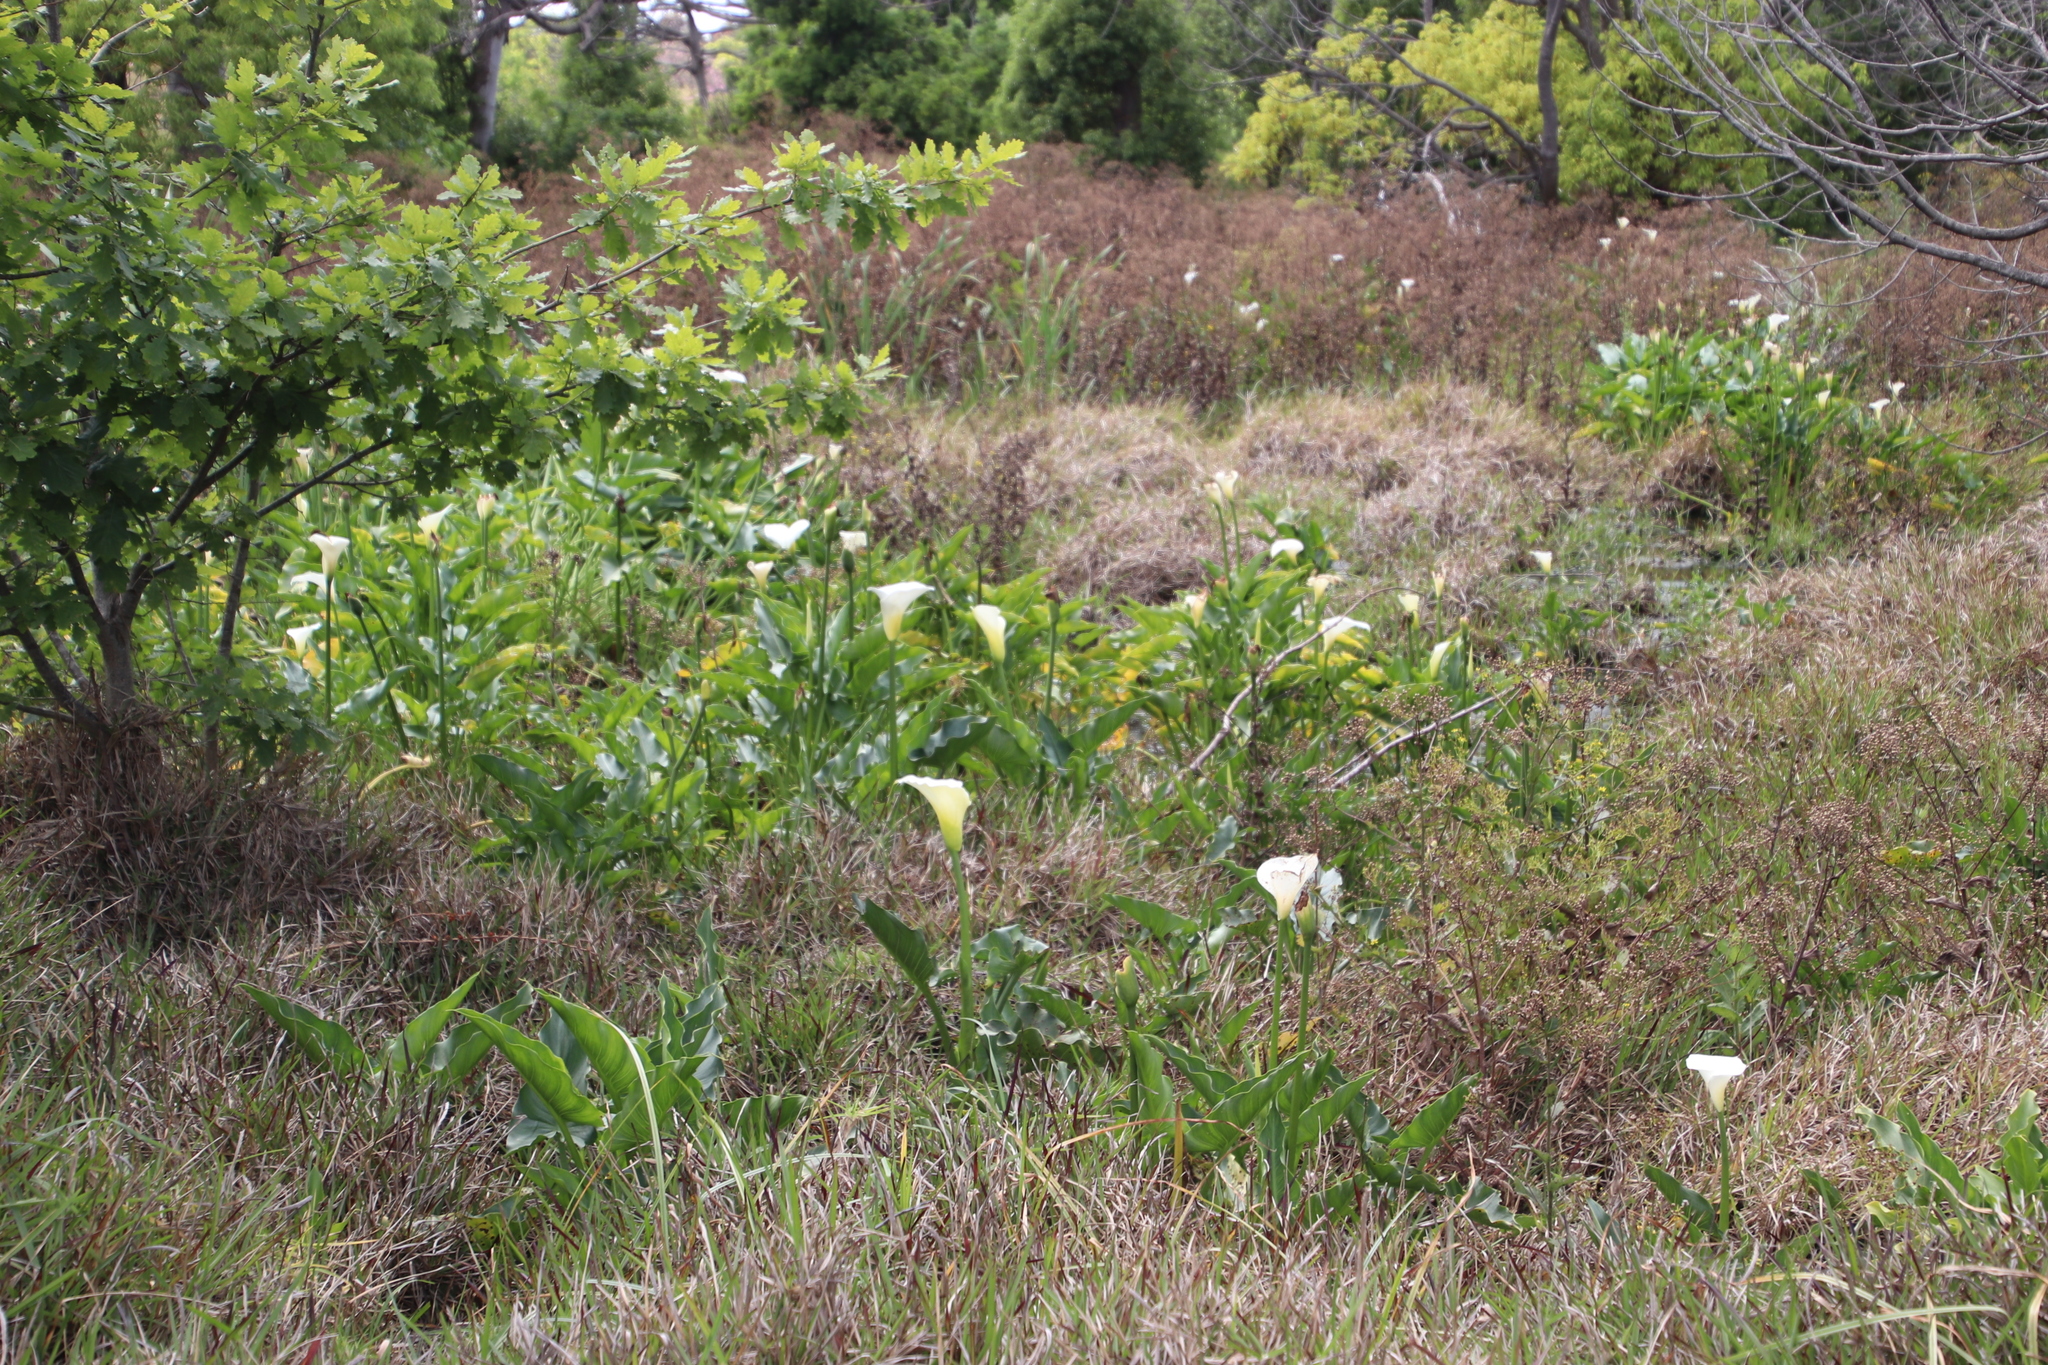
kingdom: Plantae
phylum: Tracheophyta
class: Liliopsida
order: Alismatales
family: Araceae
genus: Zantedeschia
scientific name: Zantedeschia aethiopica
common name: Altar-lily
